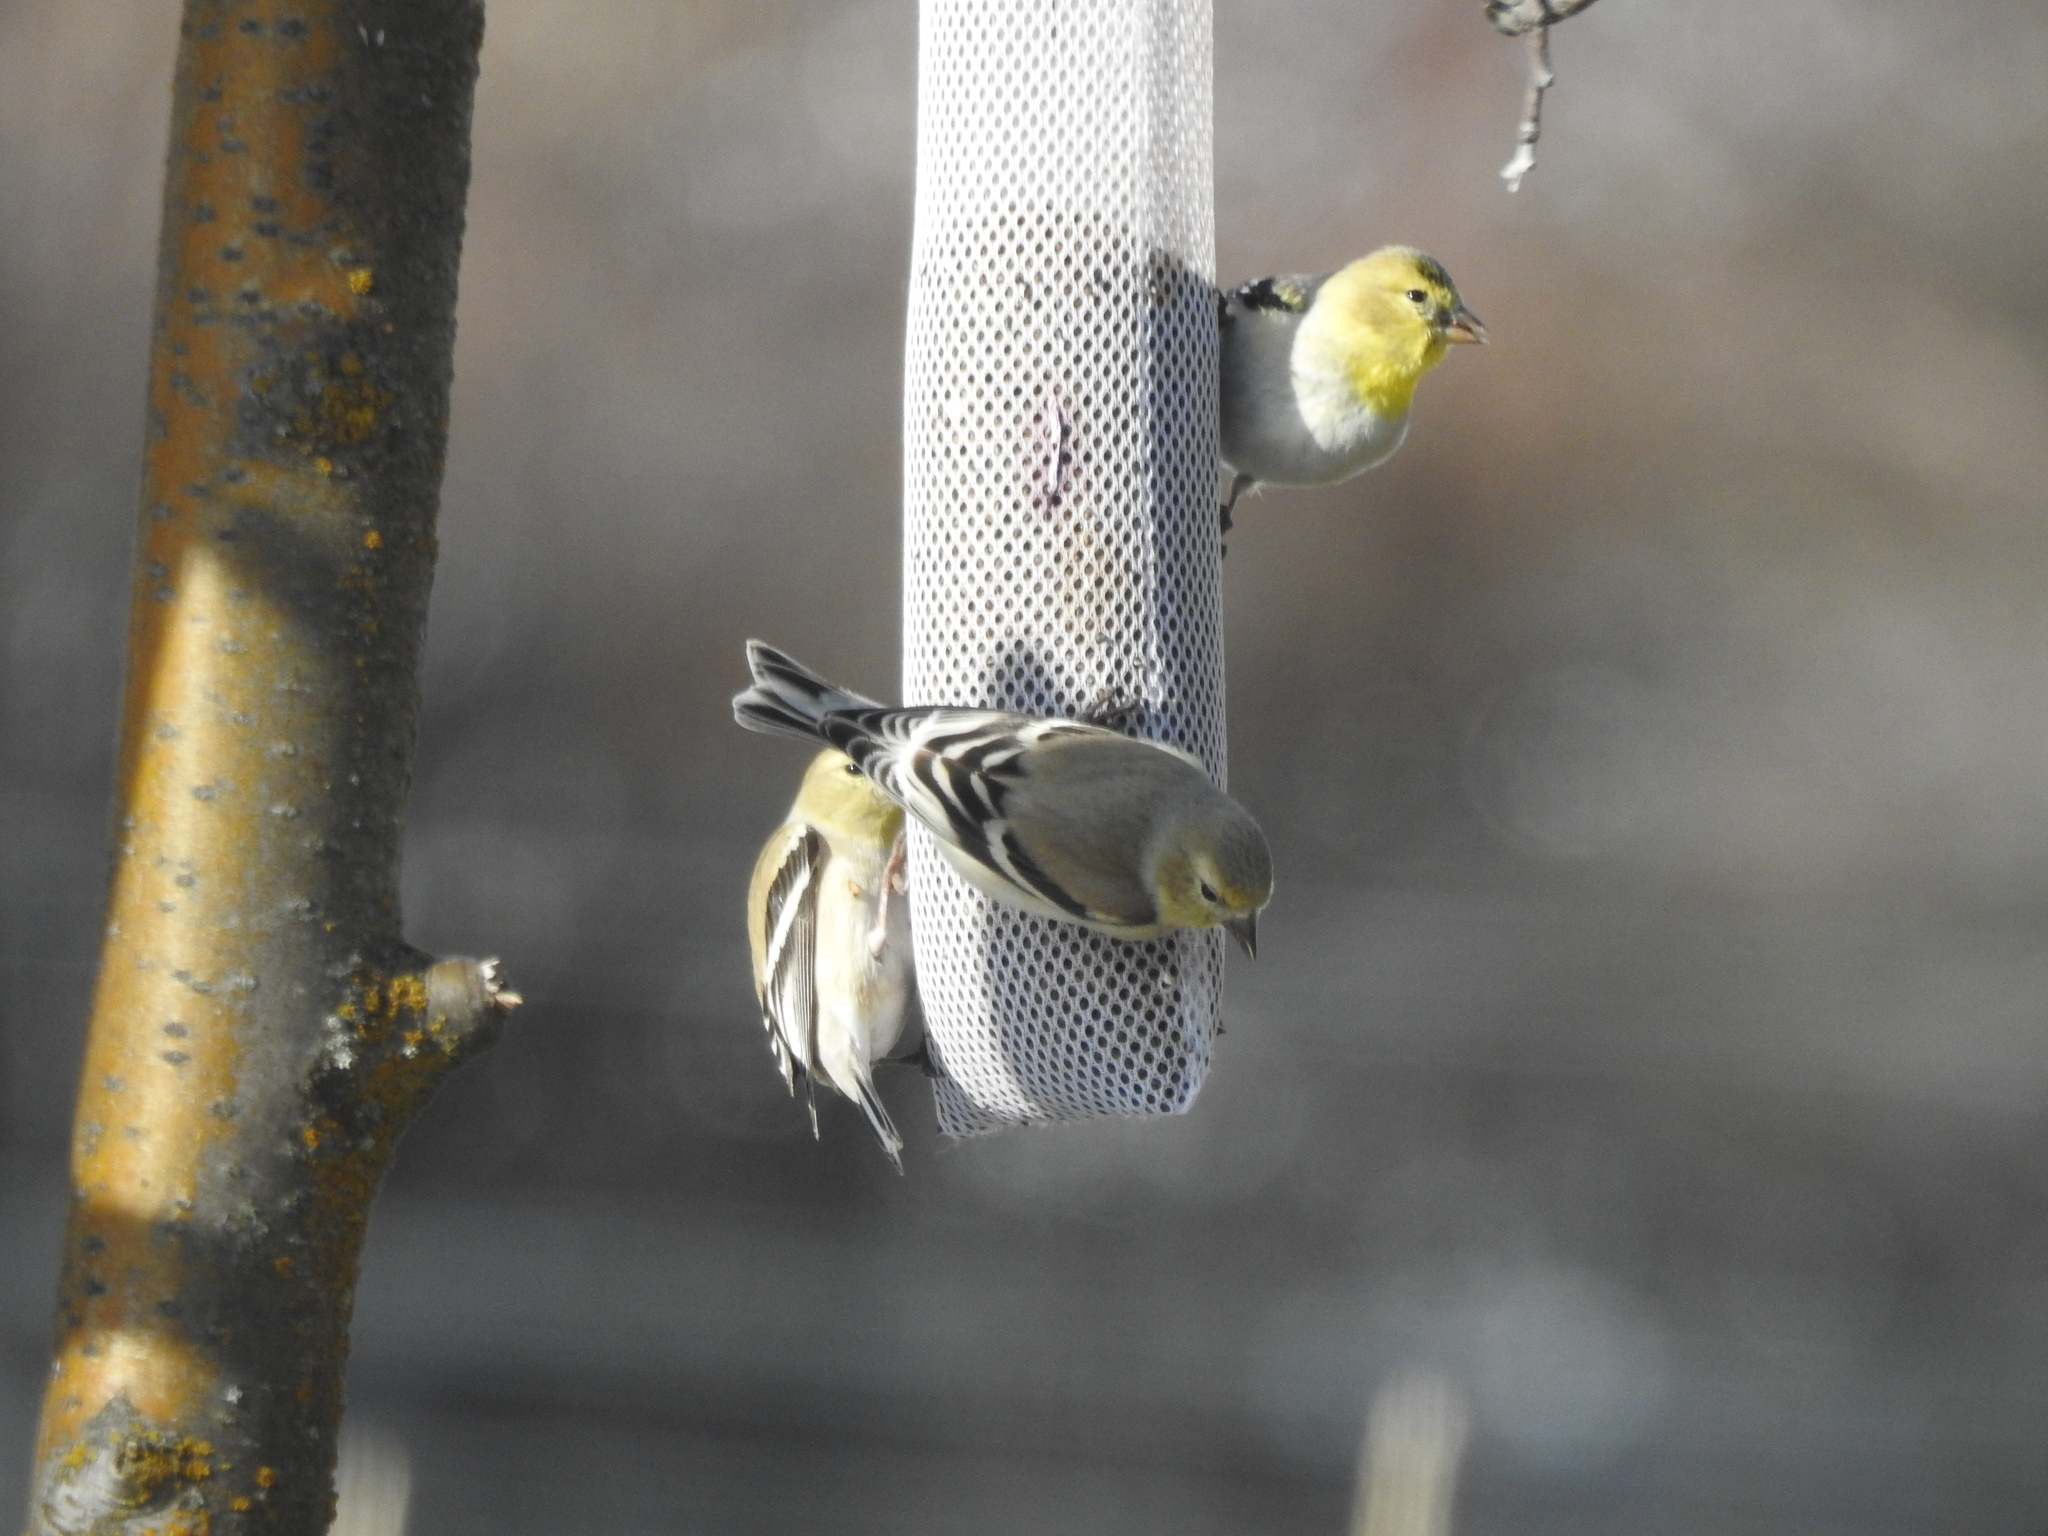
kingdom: Animalia
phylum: Chordata
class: Aves
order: Passeriformes
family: Fringillidae
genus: Spinus
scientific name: Spinus tristis
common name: American goldfinch
